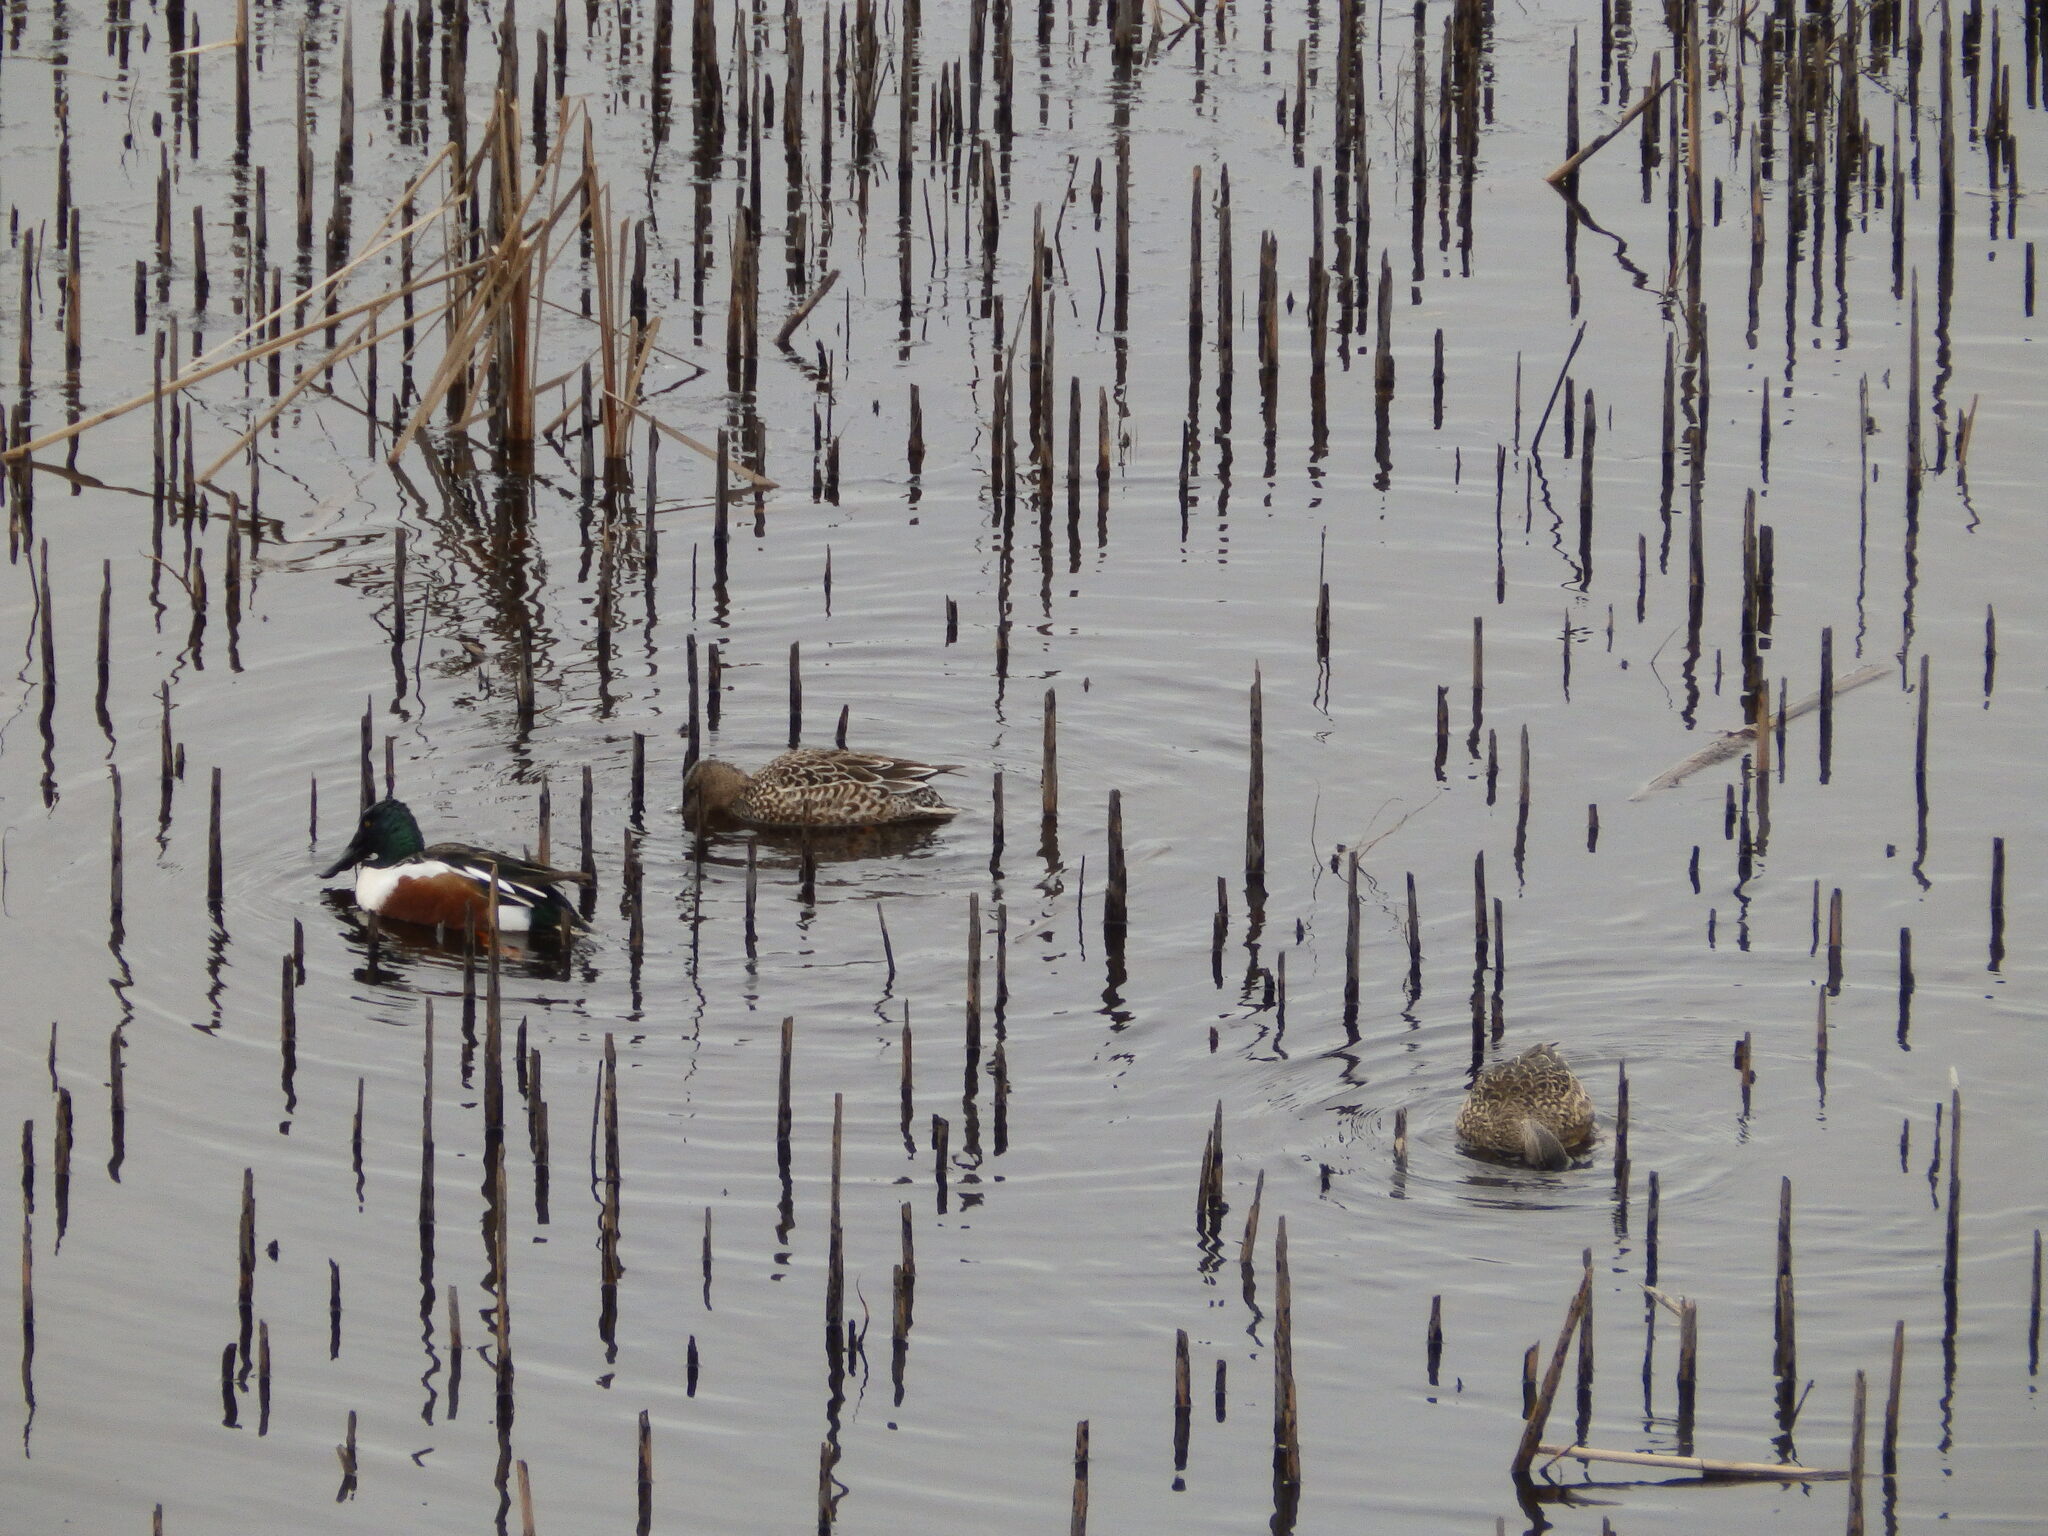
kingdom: Animalia
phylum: Chordata
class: Aves
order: Anseriformes
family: Anatidae
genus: Spatula
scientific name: Spatula clypeata
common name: Northern shoveler
